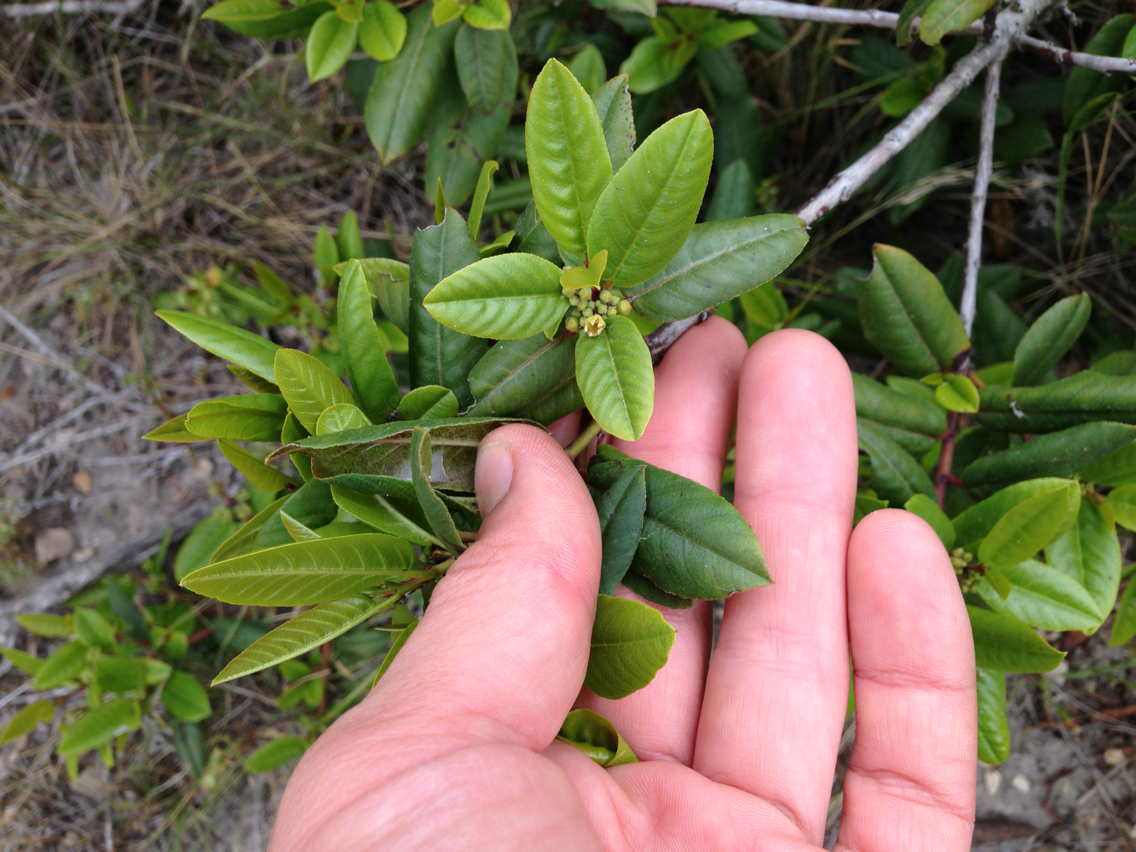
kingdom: Plantae
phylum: Tracheophyta
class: Magnoliopsida
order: Rosales
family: Rhamnaceae
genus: Frangula
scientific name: Frangula californica
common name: California buckthorn
